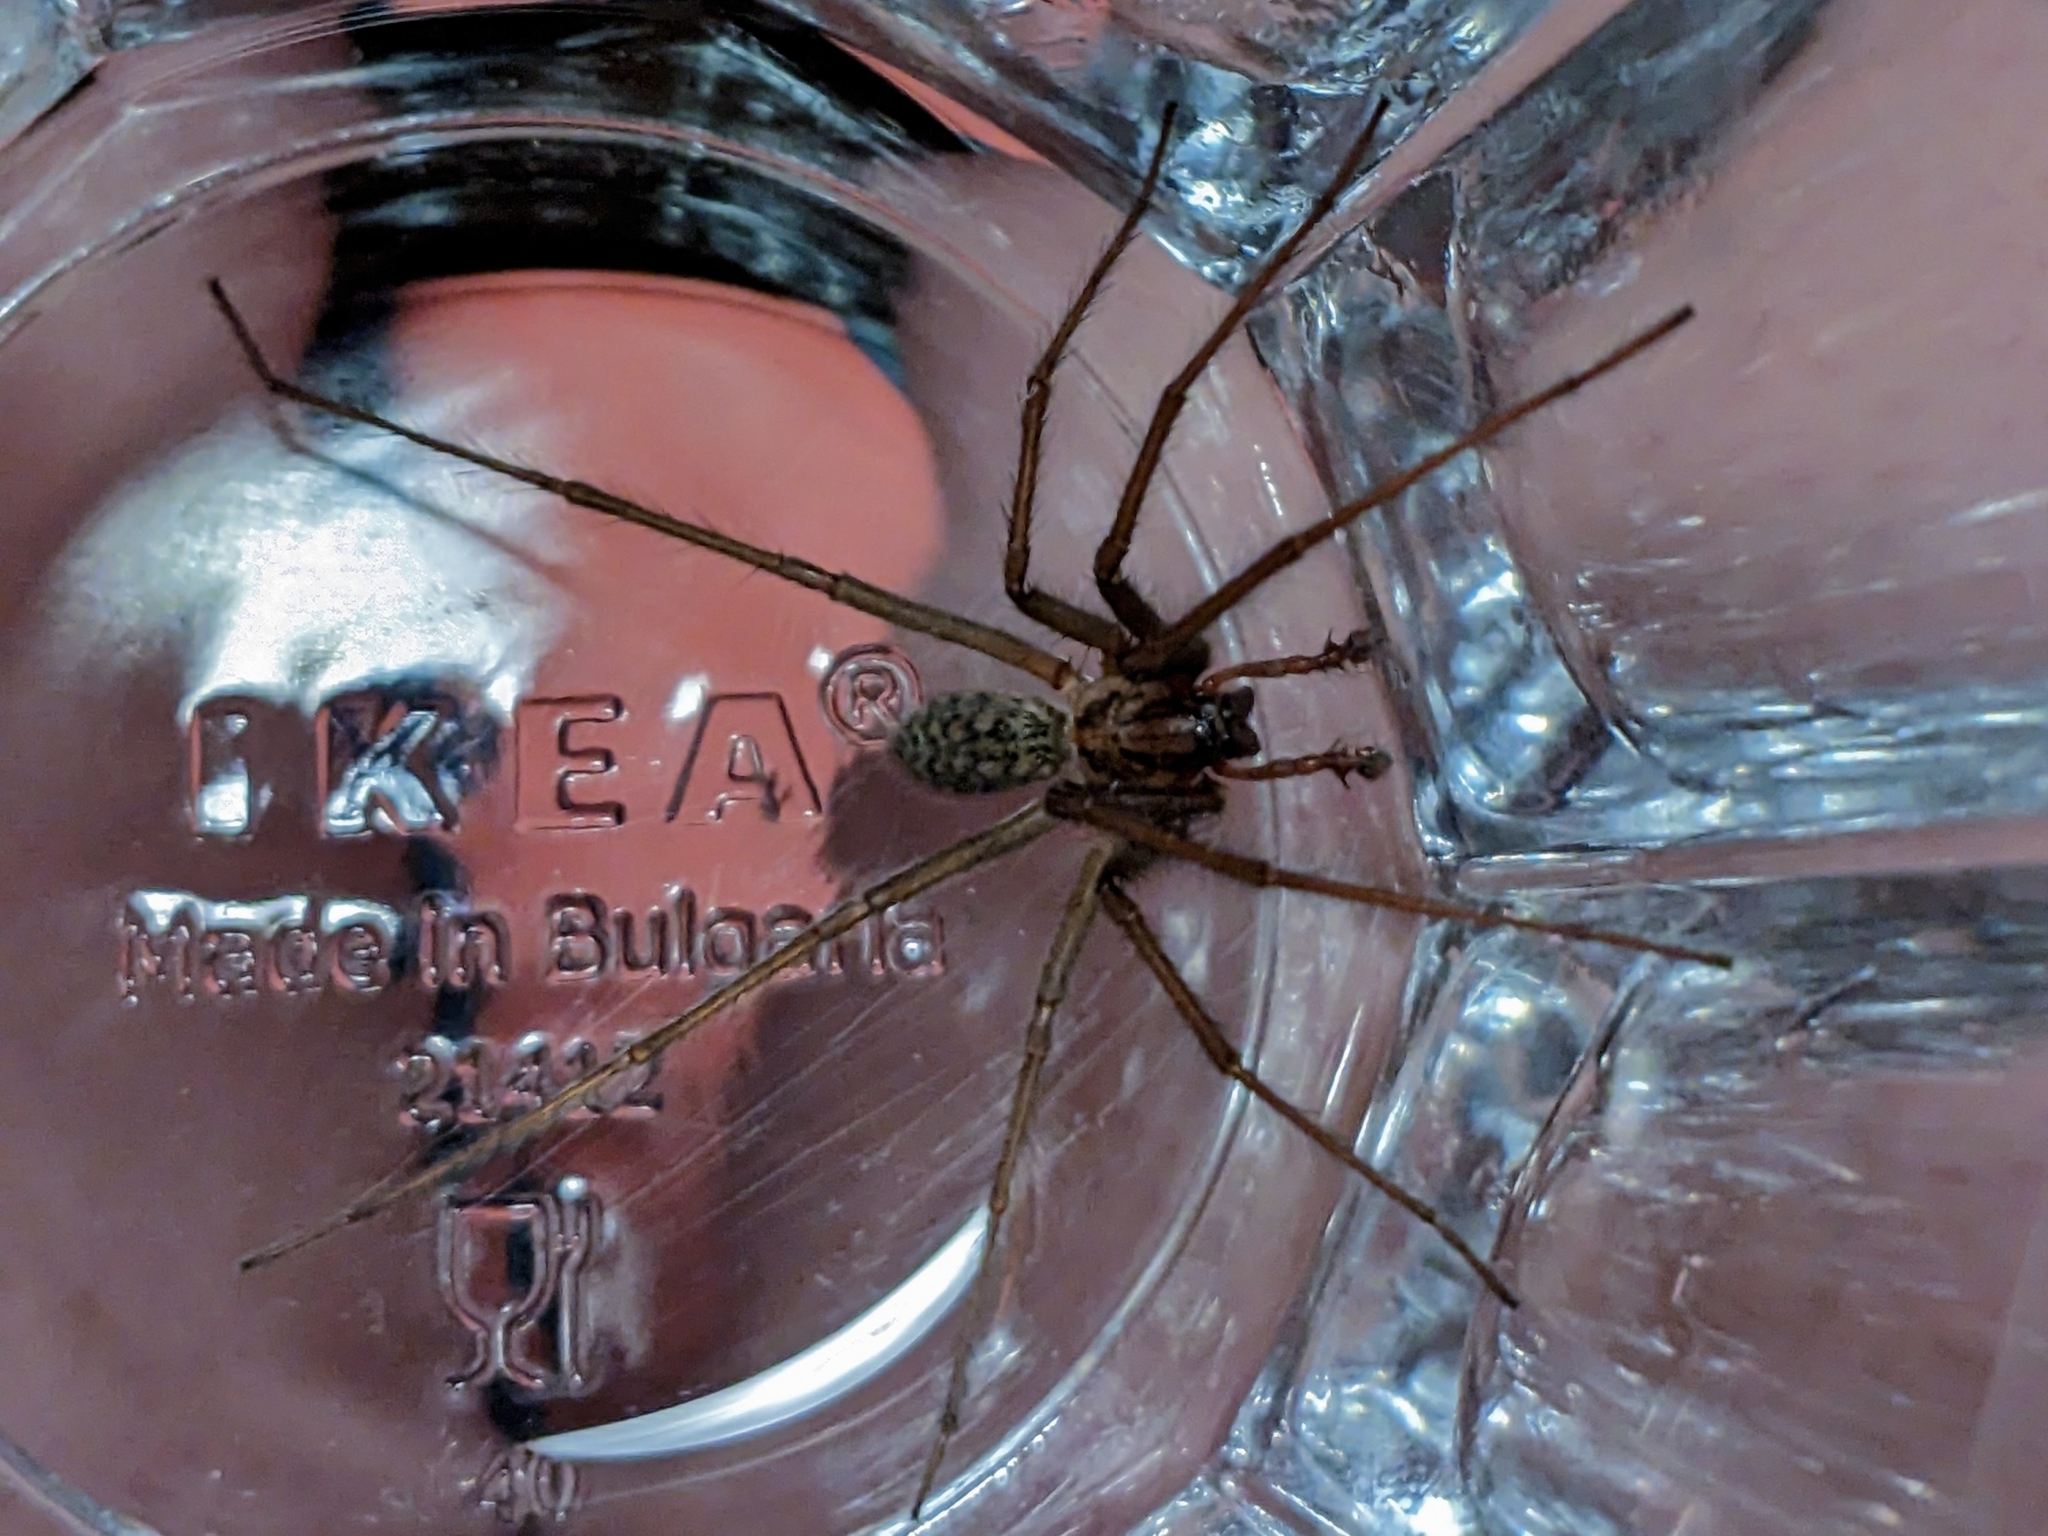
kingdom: Animalia
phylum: Arthropoda
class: Arachnida
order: Araneae
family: Agelenidae
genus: Eratigena
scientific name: Eratigena atrica
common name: Giant house spider
